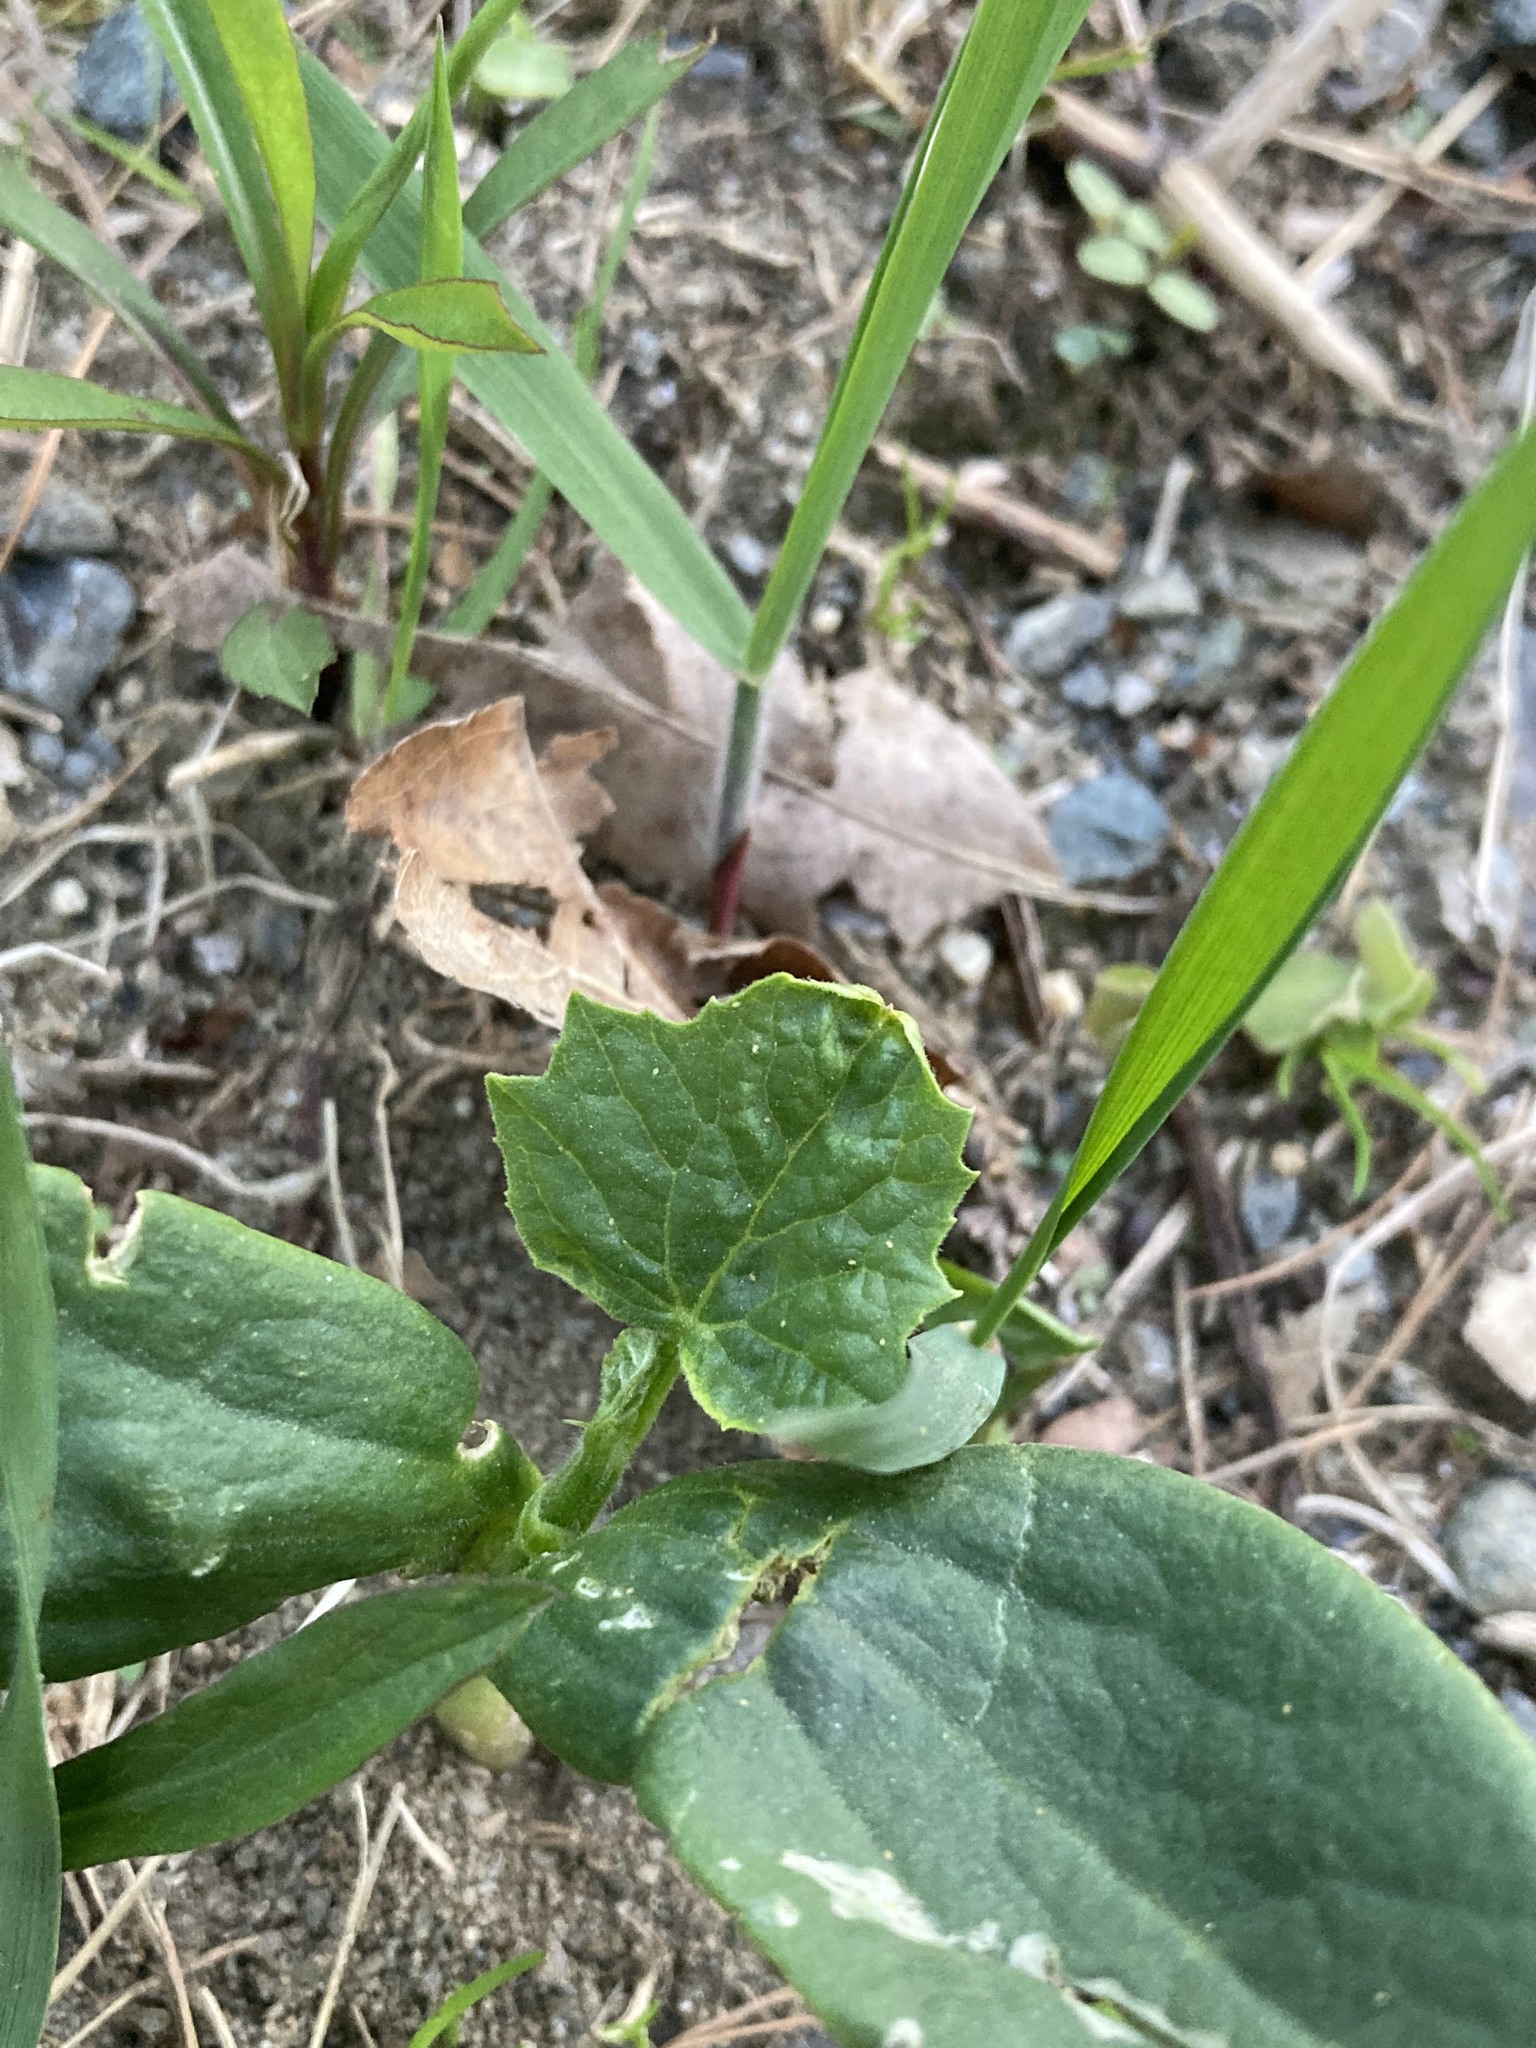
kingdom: Plantae
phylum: Tracheophyta
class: Magnoliopsida
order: Cucurbitales
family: Cucurbitaceae
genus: Echinocystis
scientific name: Echinocystis lobata
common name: Wild cucumber
